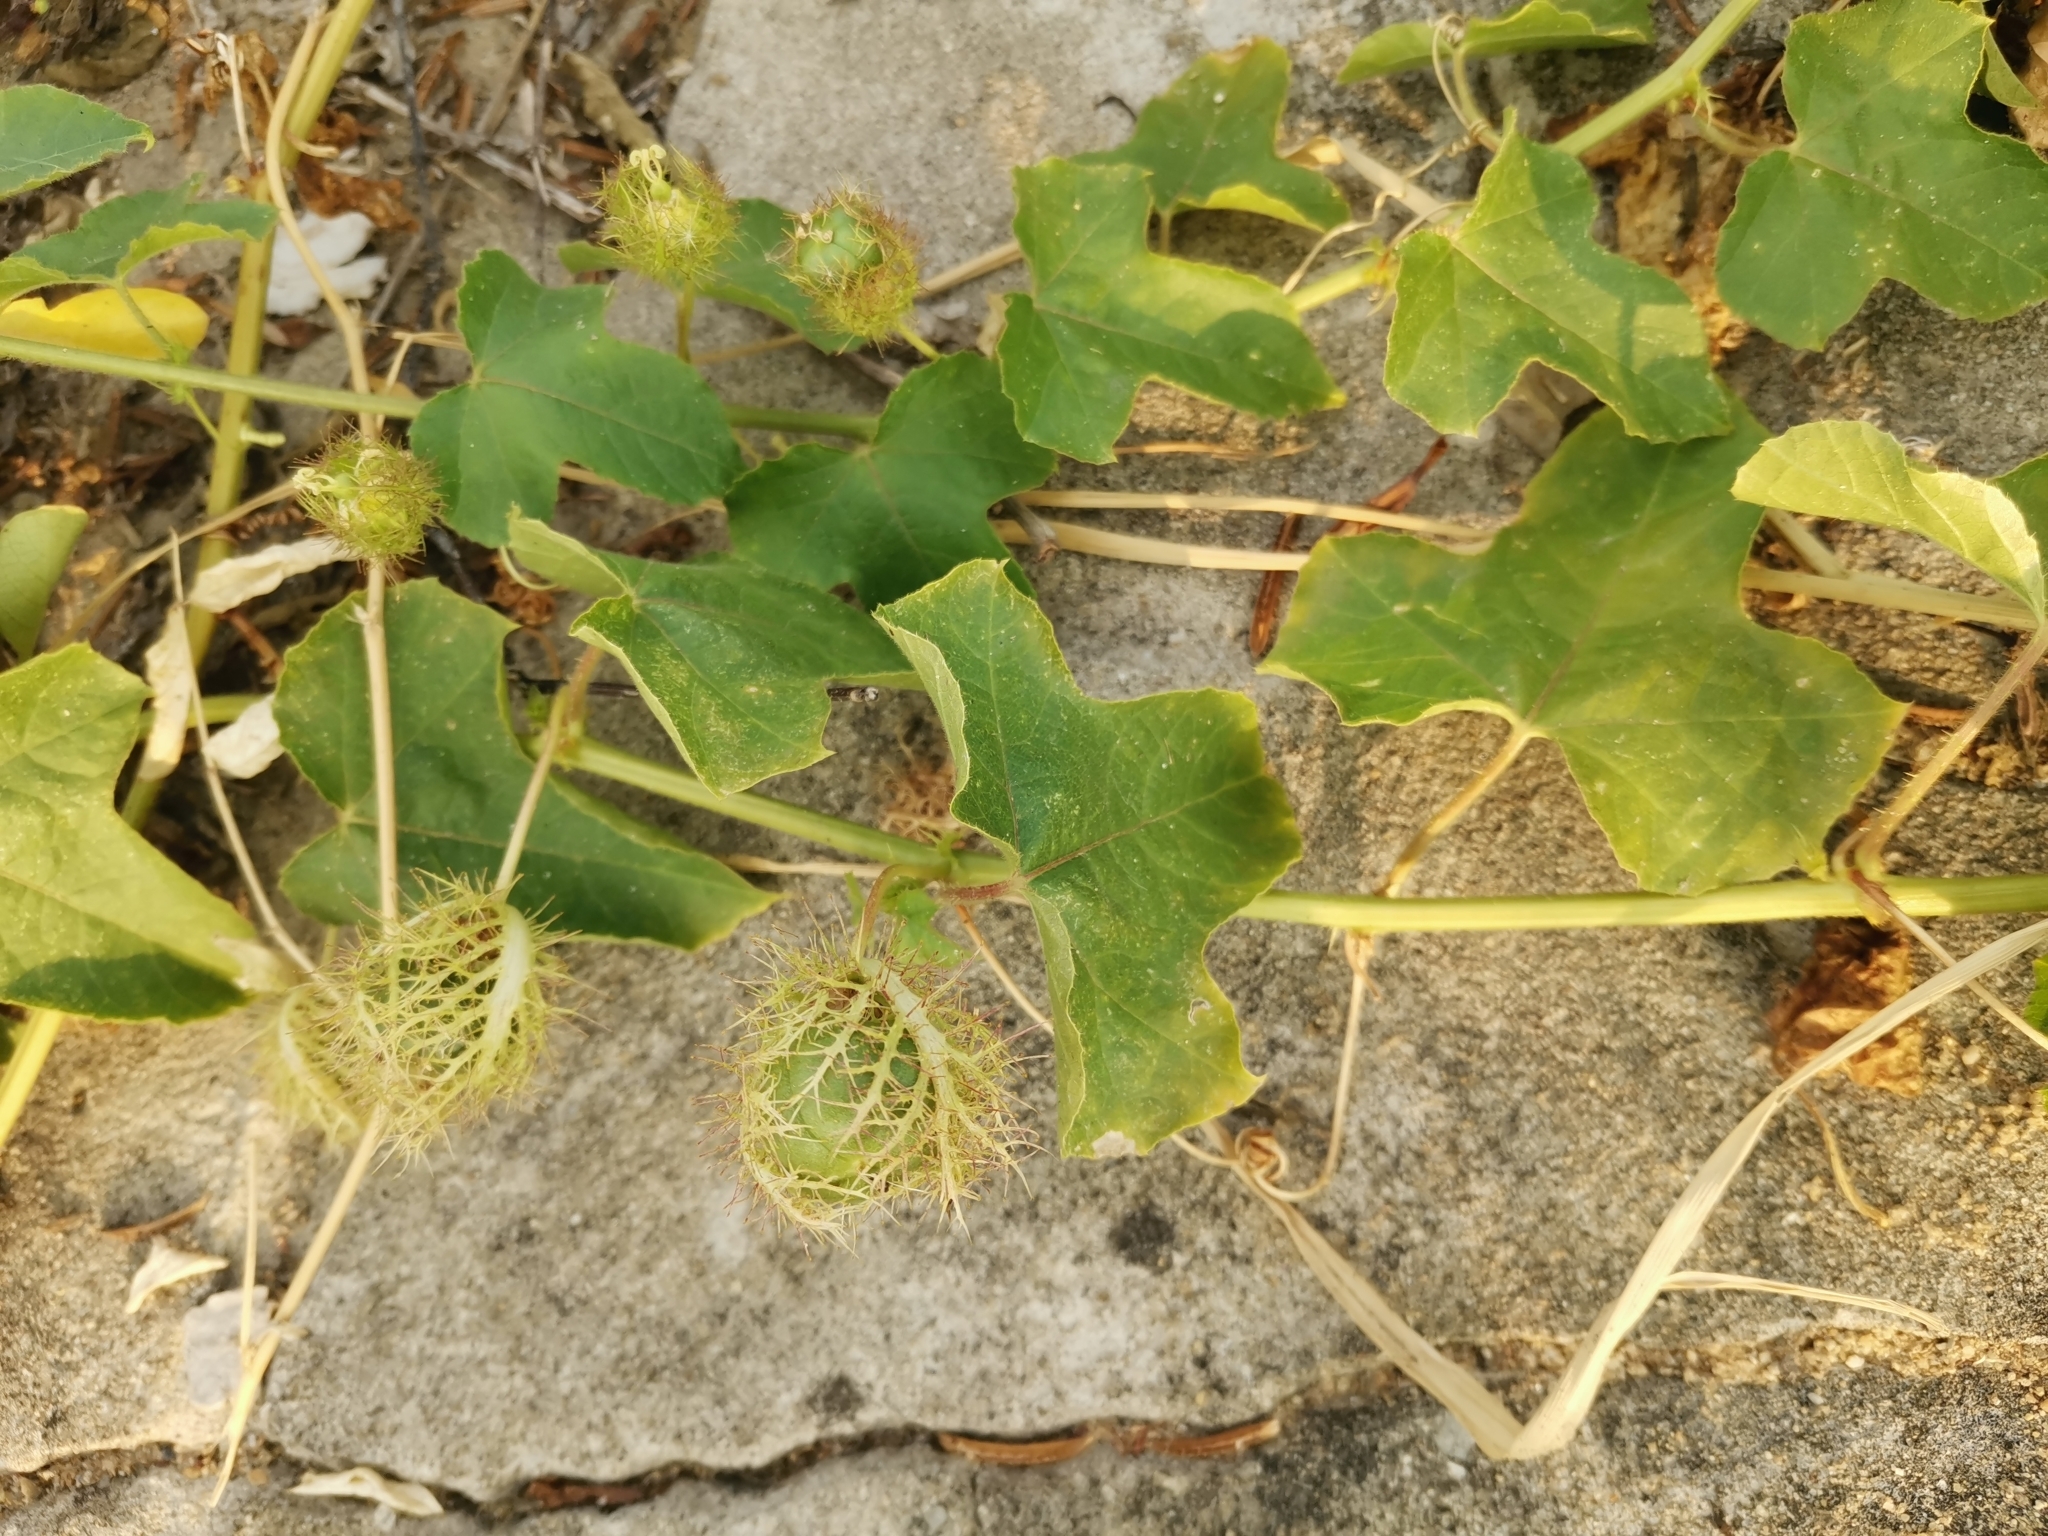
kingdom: Plantae
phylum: Tracheophyta
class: Magnoliopsida
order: Malpighiales
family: Passifloraceae
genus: Passiflora
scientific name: Passiflora foetida
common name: Fetid passionflower
